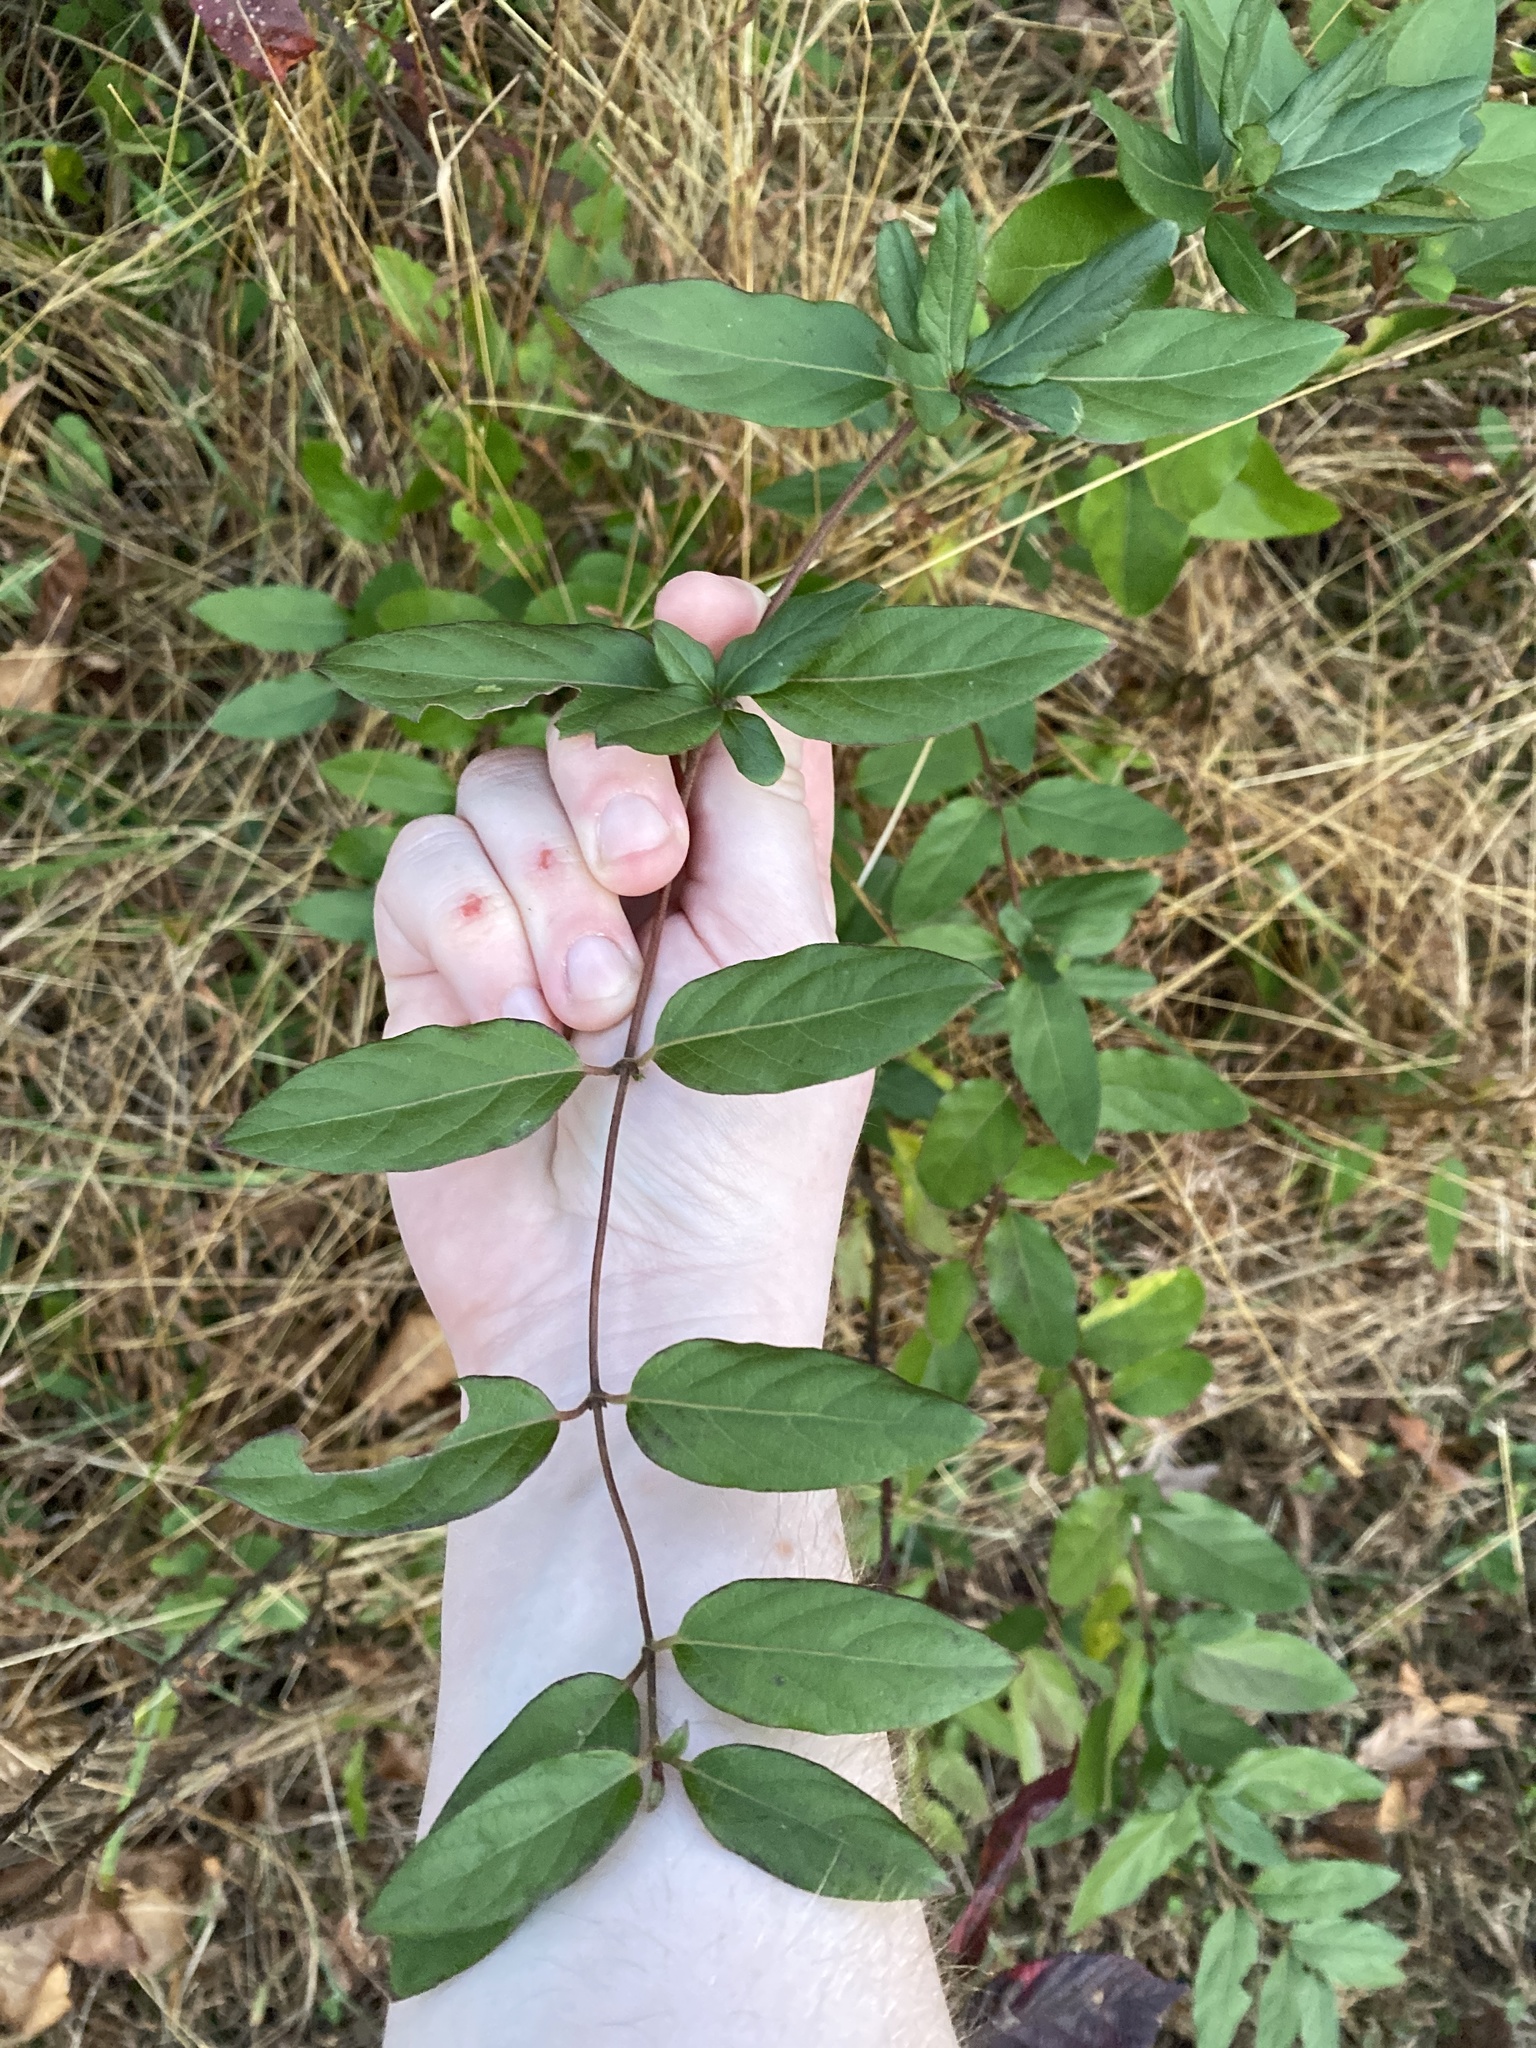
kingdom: Plantae
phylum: Tracheophyta
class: Magnoliopsida
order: Dipsacales
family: Caprifoliaceae
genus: Lonicera
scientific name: Lonicera japonica
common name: Japanese honeysuckle
